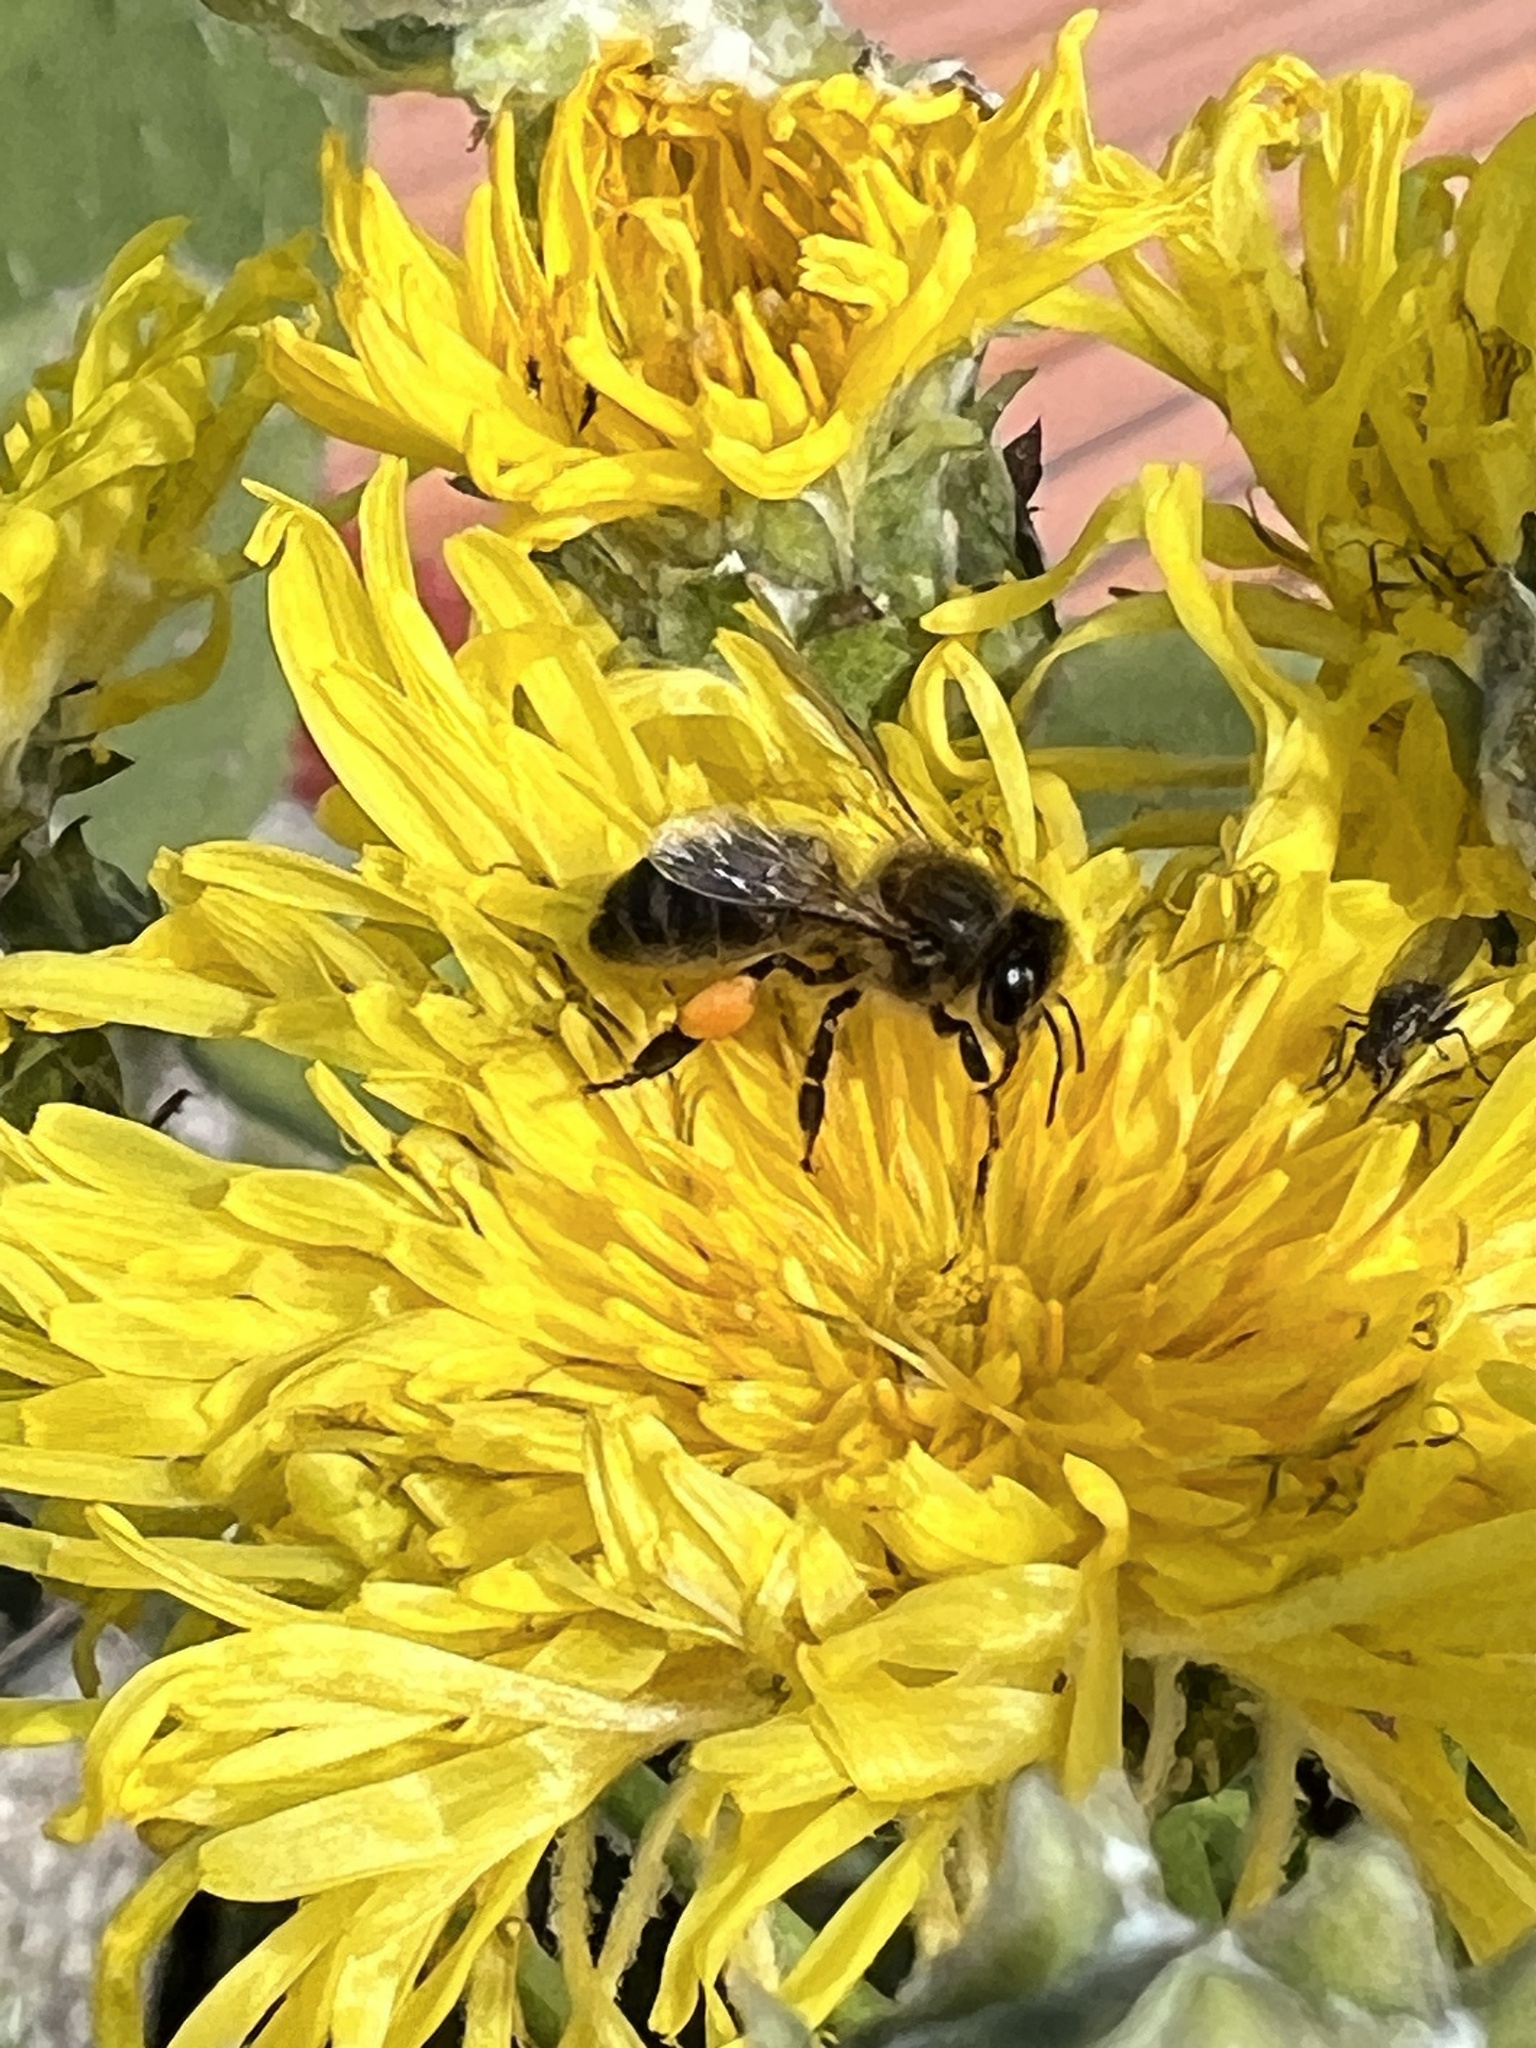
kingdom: Animalia
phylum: Arthropoda
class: Insecta
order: Hymenoptera
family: Apidae
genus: Apis
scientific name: Apis mellifera
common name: Honey bee
